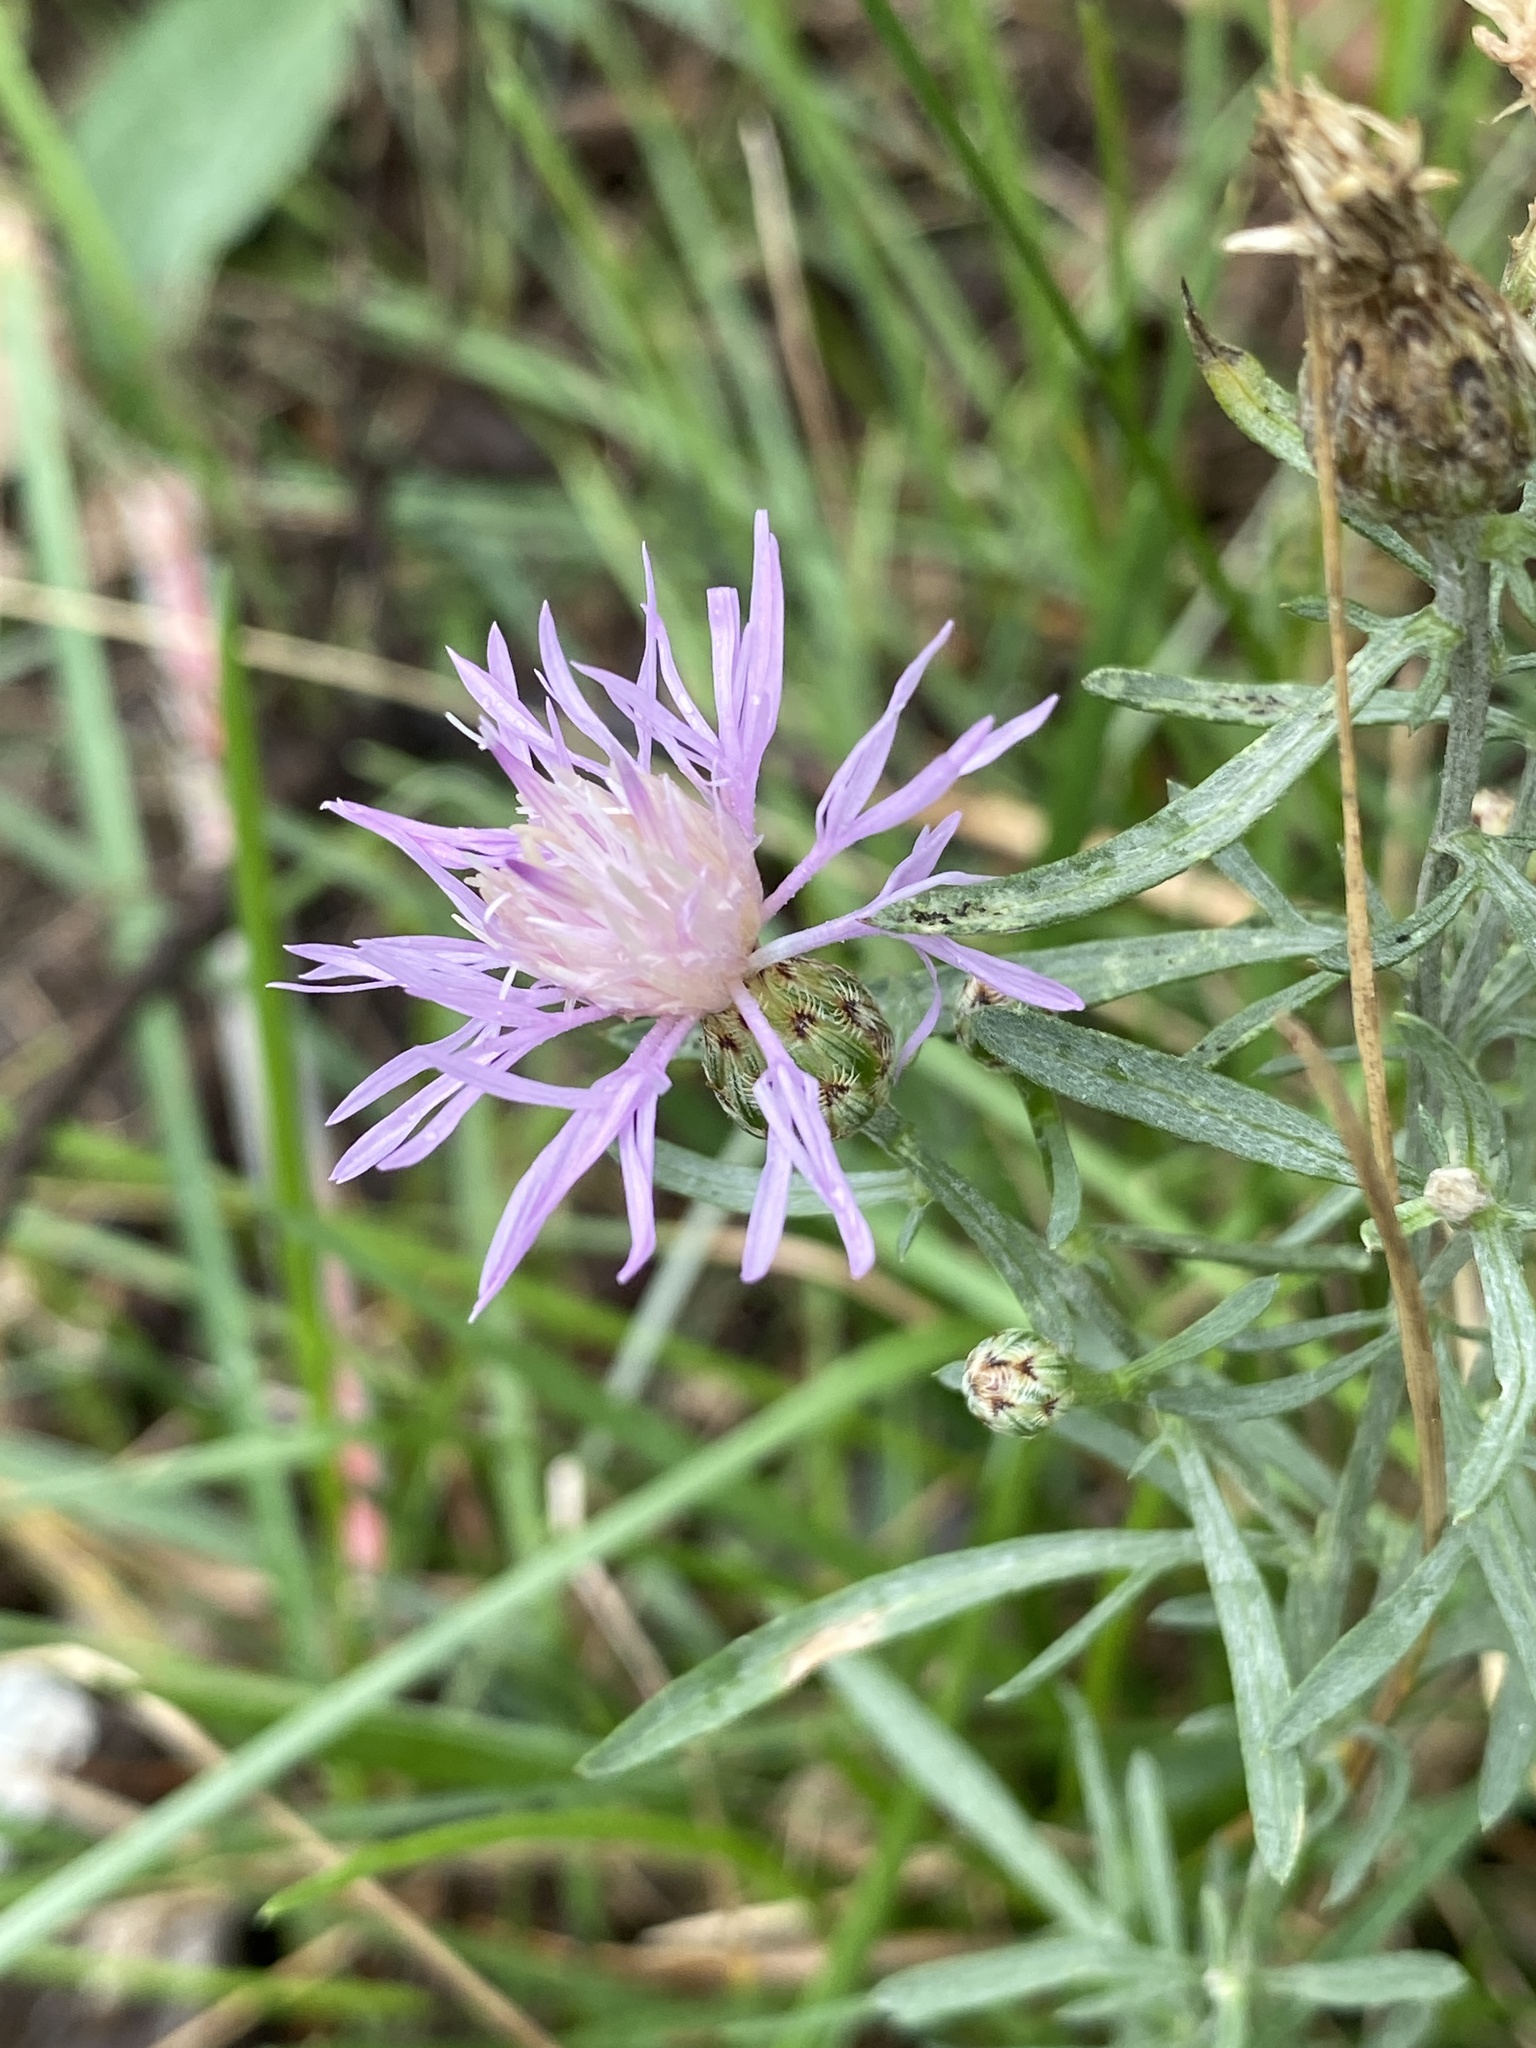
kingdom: Plantae
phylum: Tracheophyta
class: Magnoliopsida
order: Asterales
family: Asteraceae
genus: Centaurea
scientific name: Centaurea stoebe
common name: Spotted knapweed
